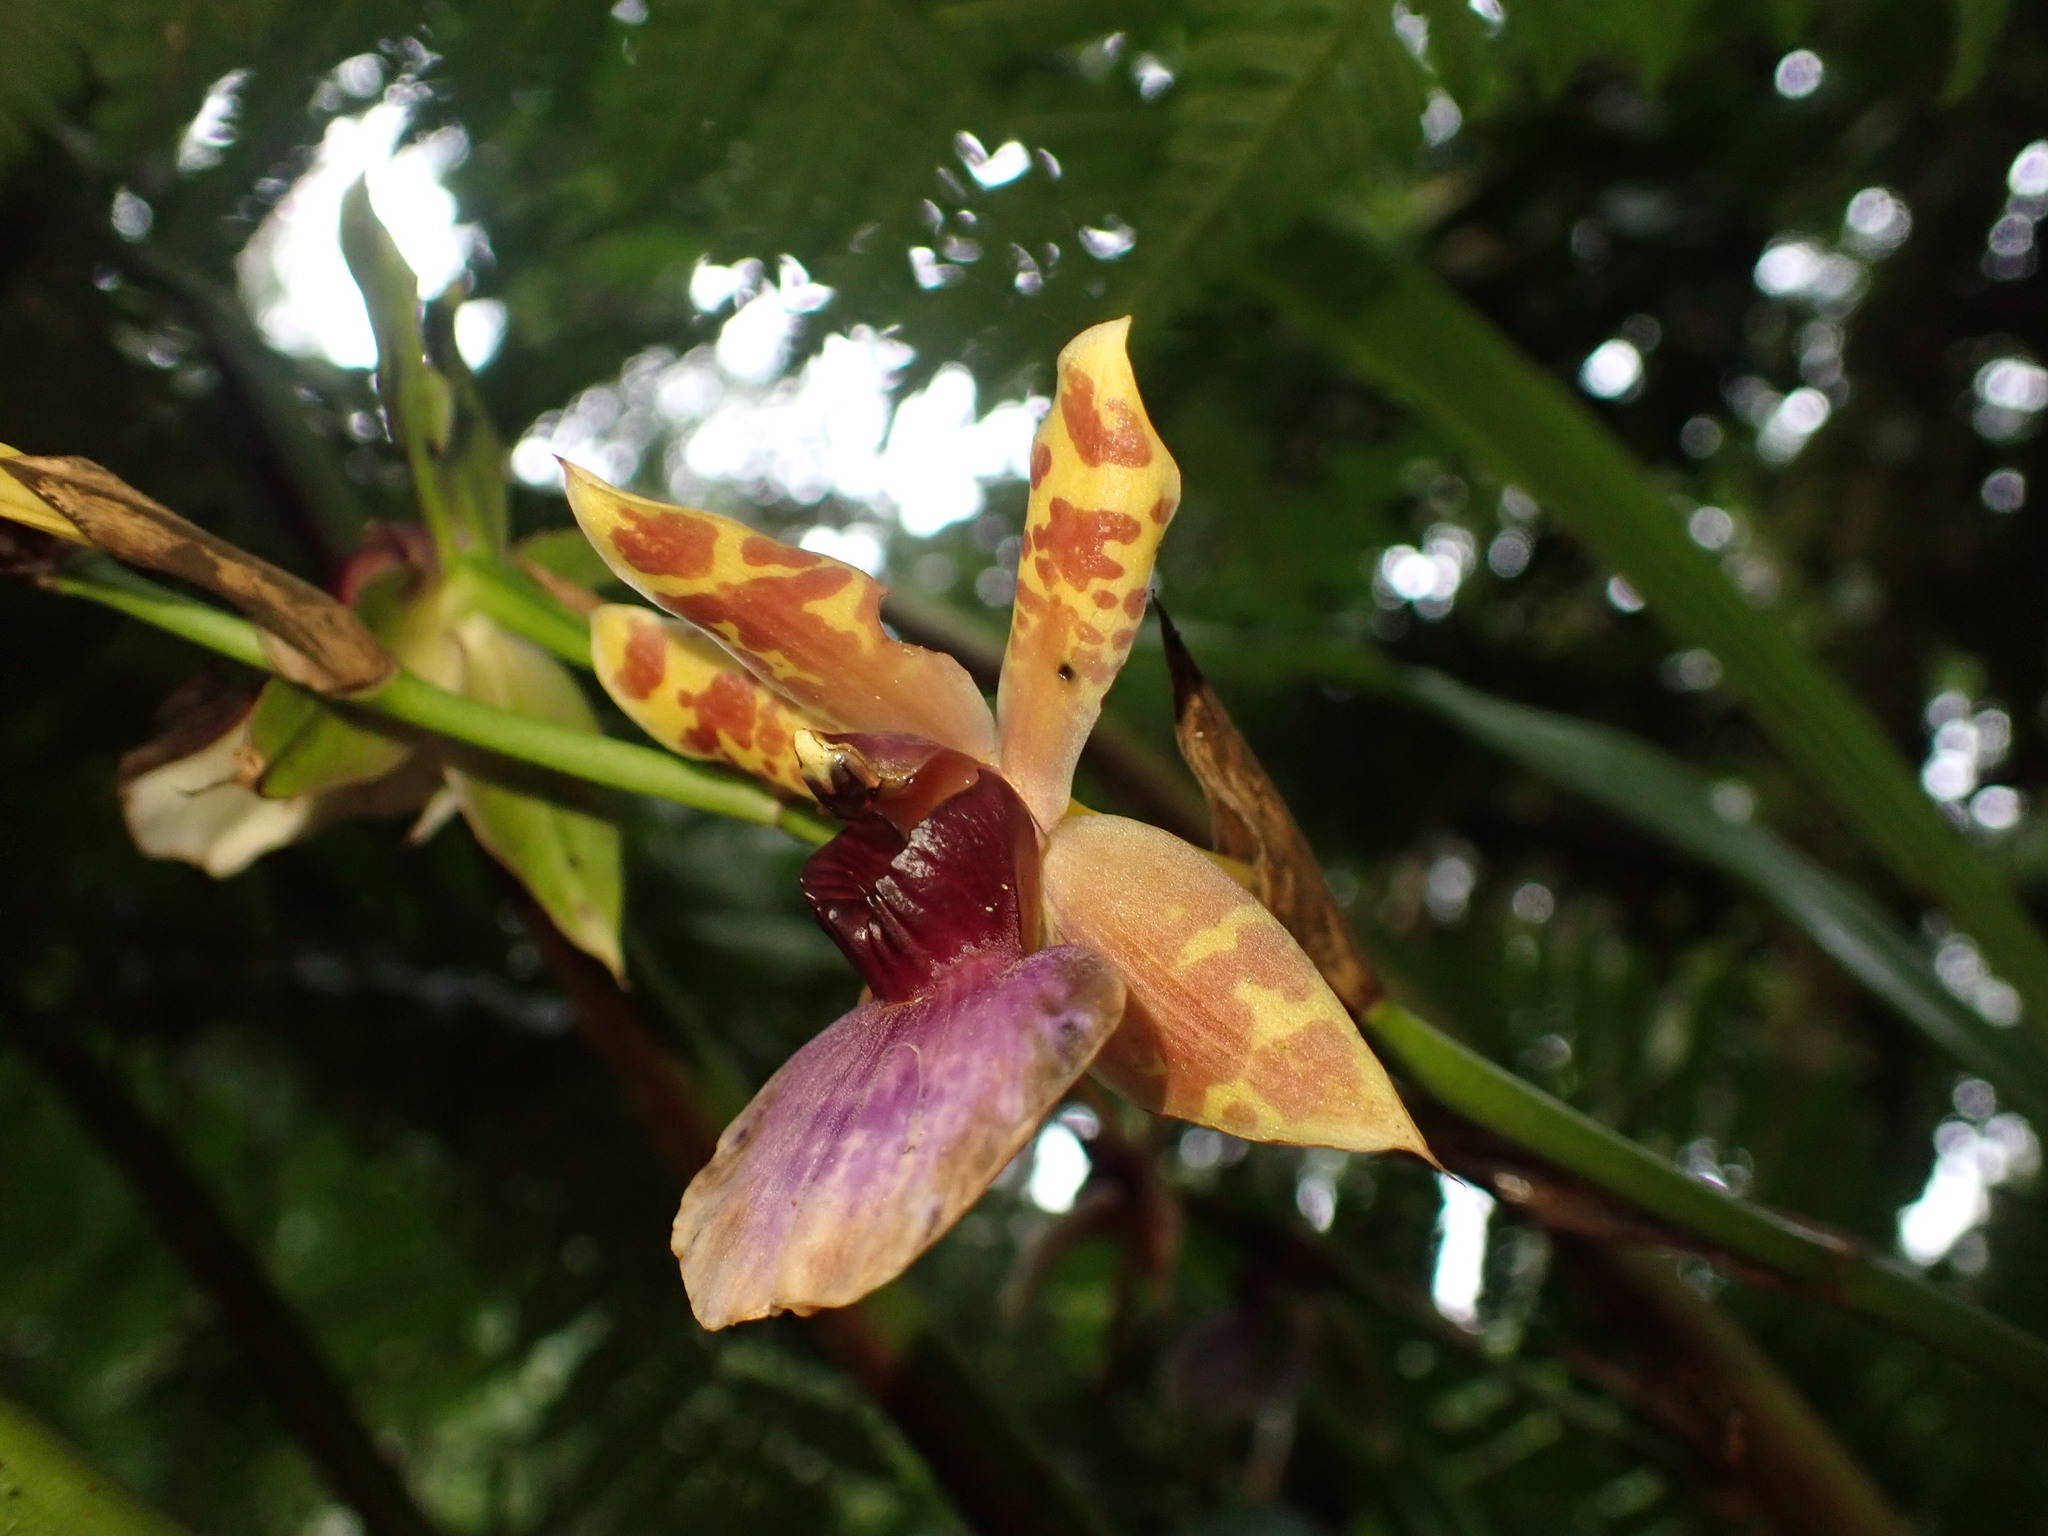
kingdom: Plantae
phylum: Tracheophyta
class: Liliopsida
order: Asparagales
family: Orchidaceae
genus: Zygopetalum
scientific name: Zygopetalum maxillare
